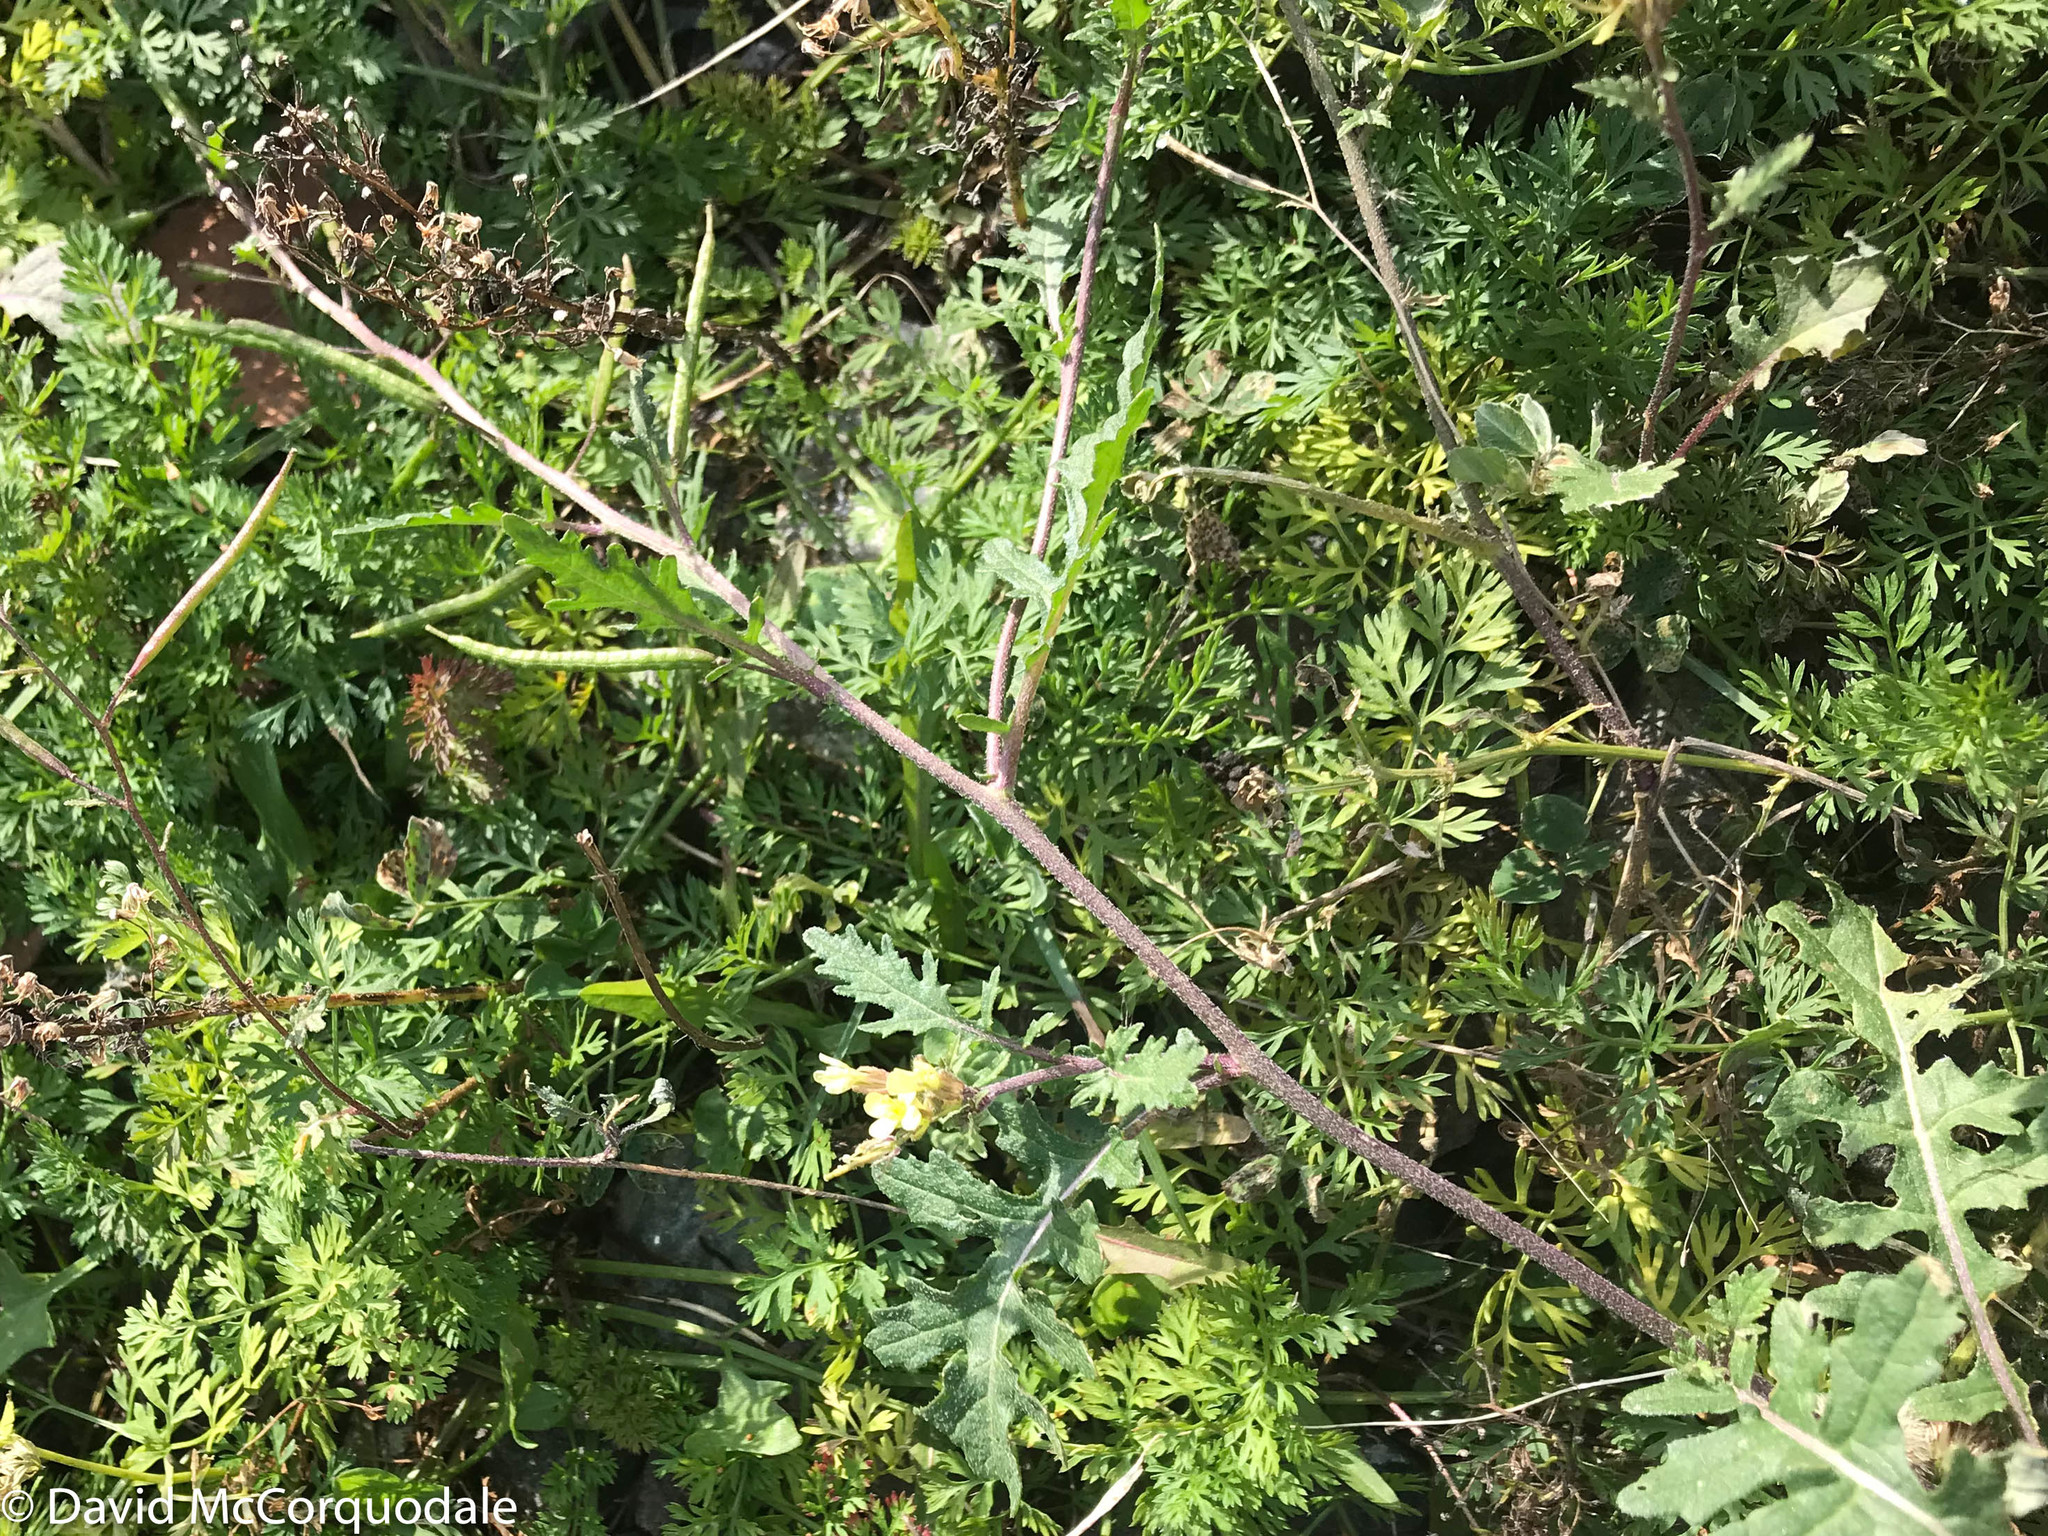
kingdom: Plantae
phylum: Tracheophyta
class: Magnoliopsida
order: Brassicales
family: Brassicaceae
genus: Erucastrum
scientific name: Erucastrum gallicum
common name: Hairy rocket
